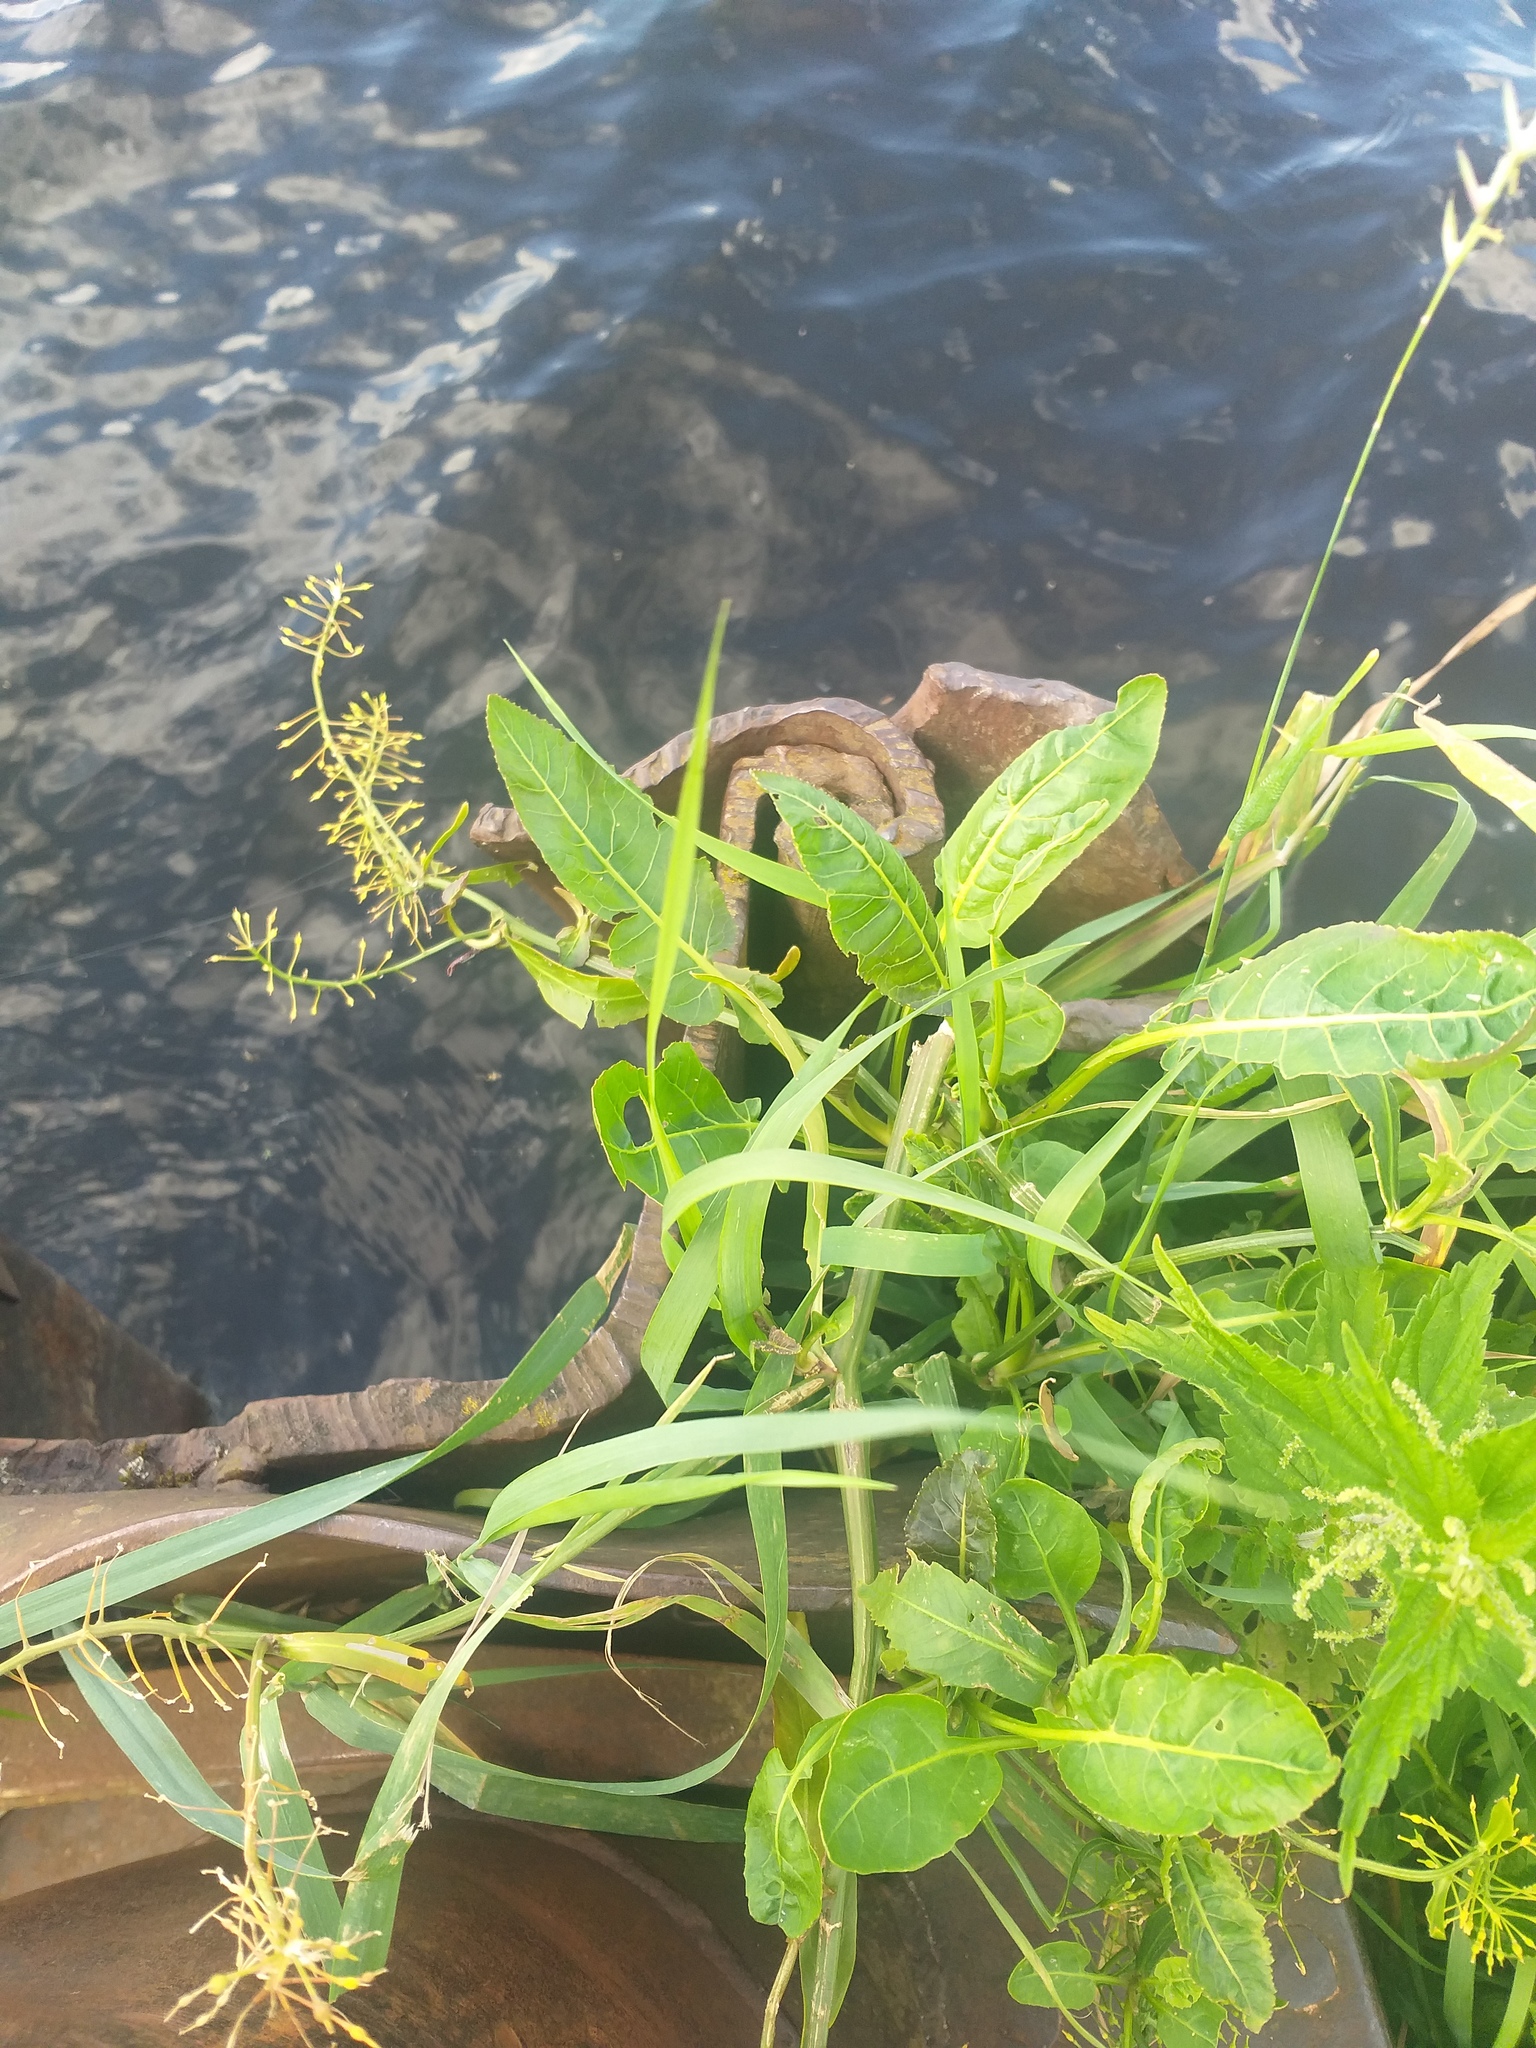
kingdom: Plantae
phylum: Tracheophyta
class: Magnoliopsida
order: Brassicales
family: Brassicaceae
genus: Rorippa
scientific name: Rorippa amphibia
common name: Great yellow-cress
